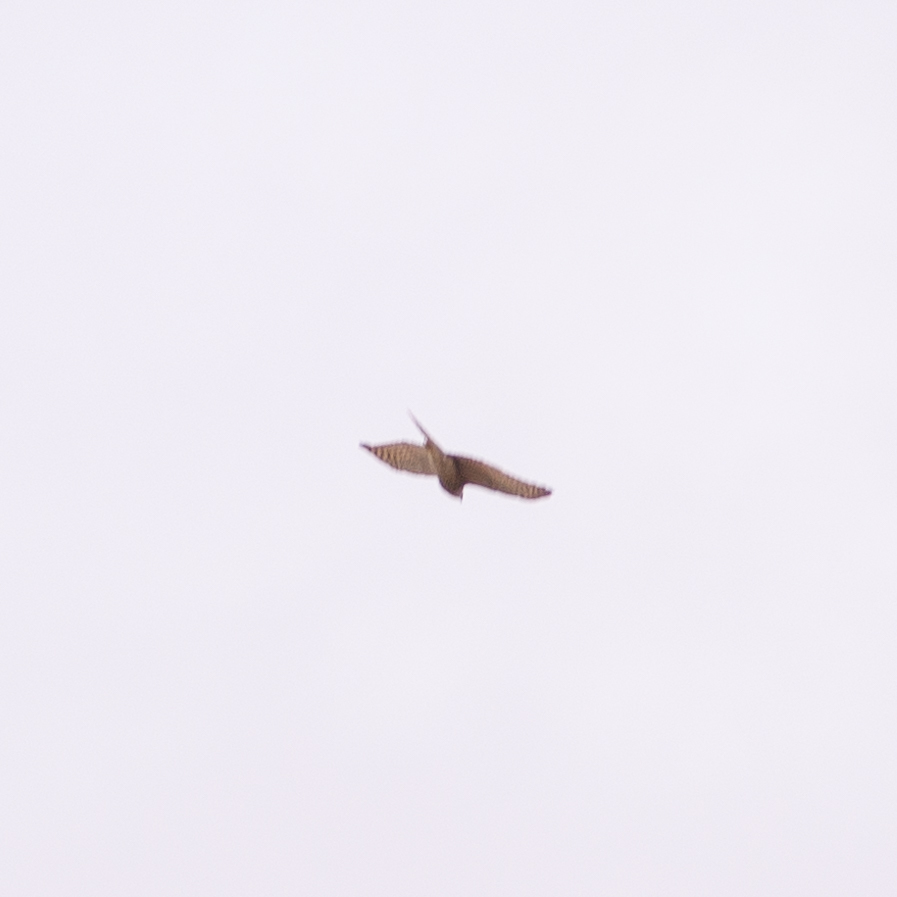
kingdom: Animalia
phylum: Chordata
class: Aves
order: Accipitriformes
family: Accipitridae
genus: Accipiter
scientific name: Accipiter nisus
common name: Eurasian sparrowhawk
